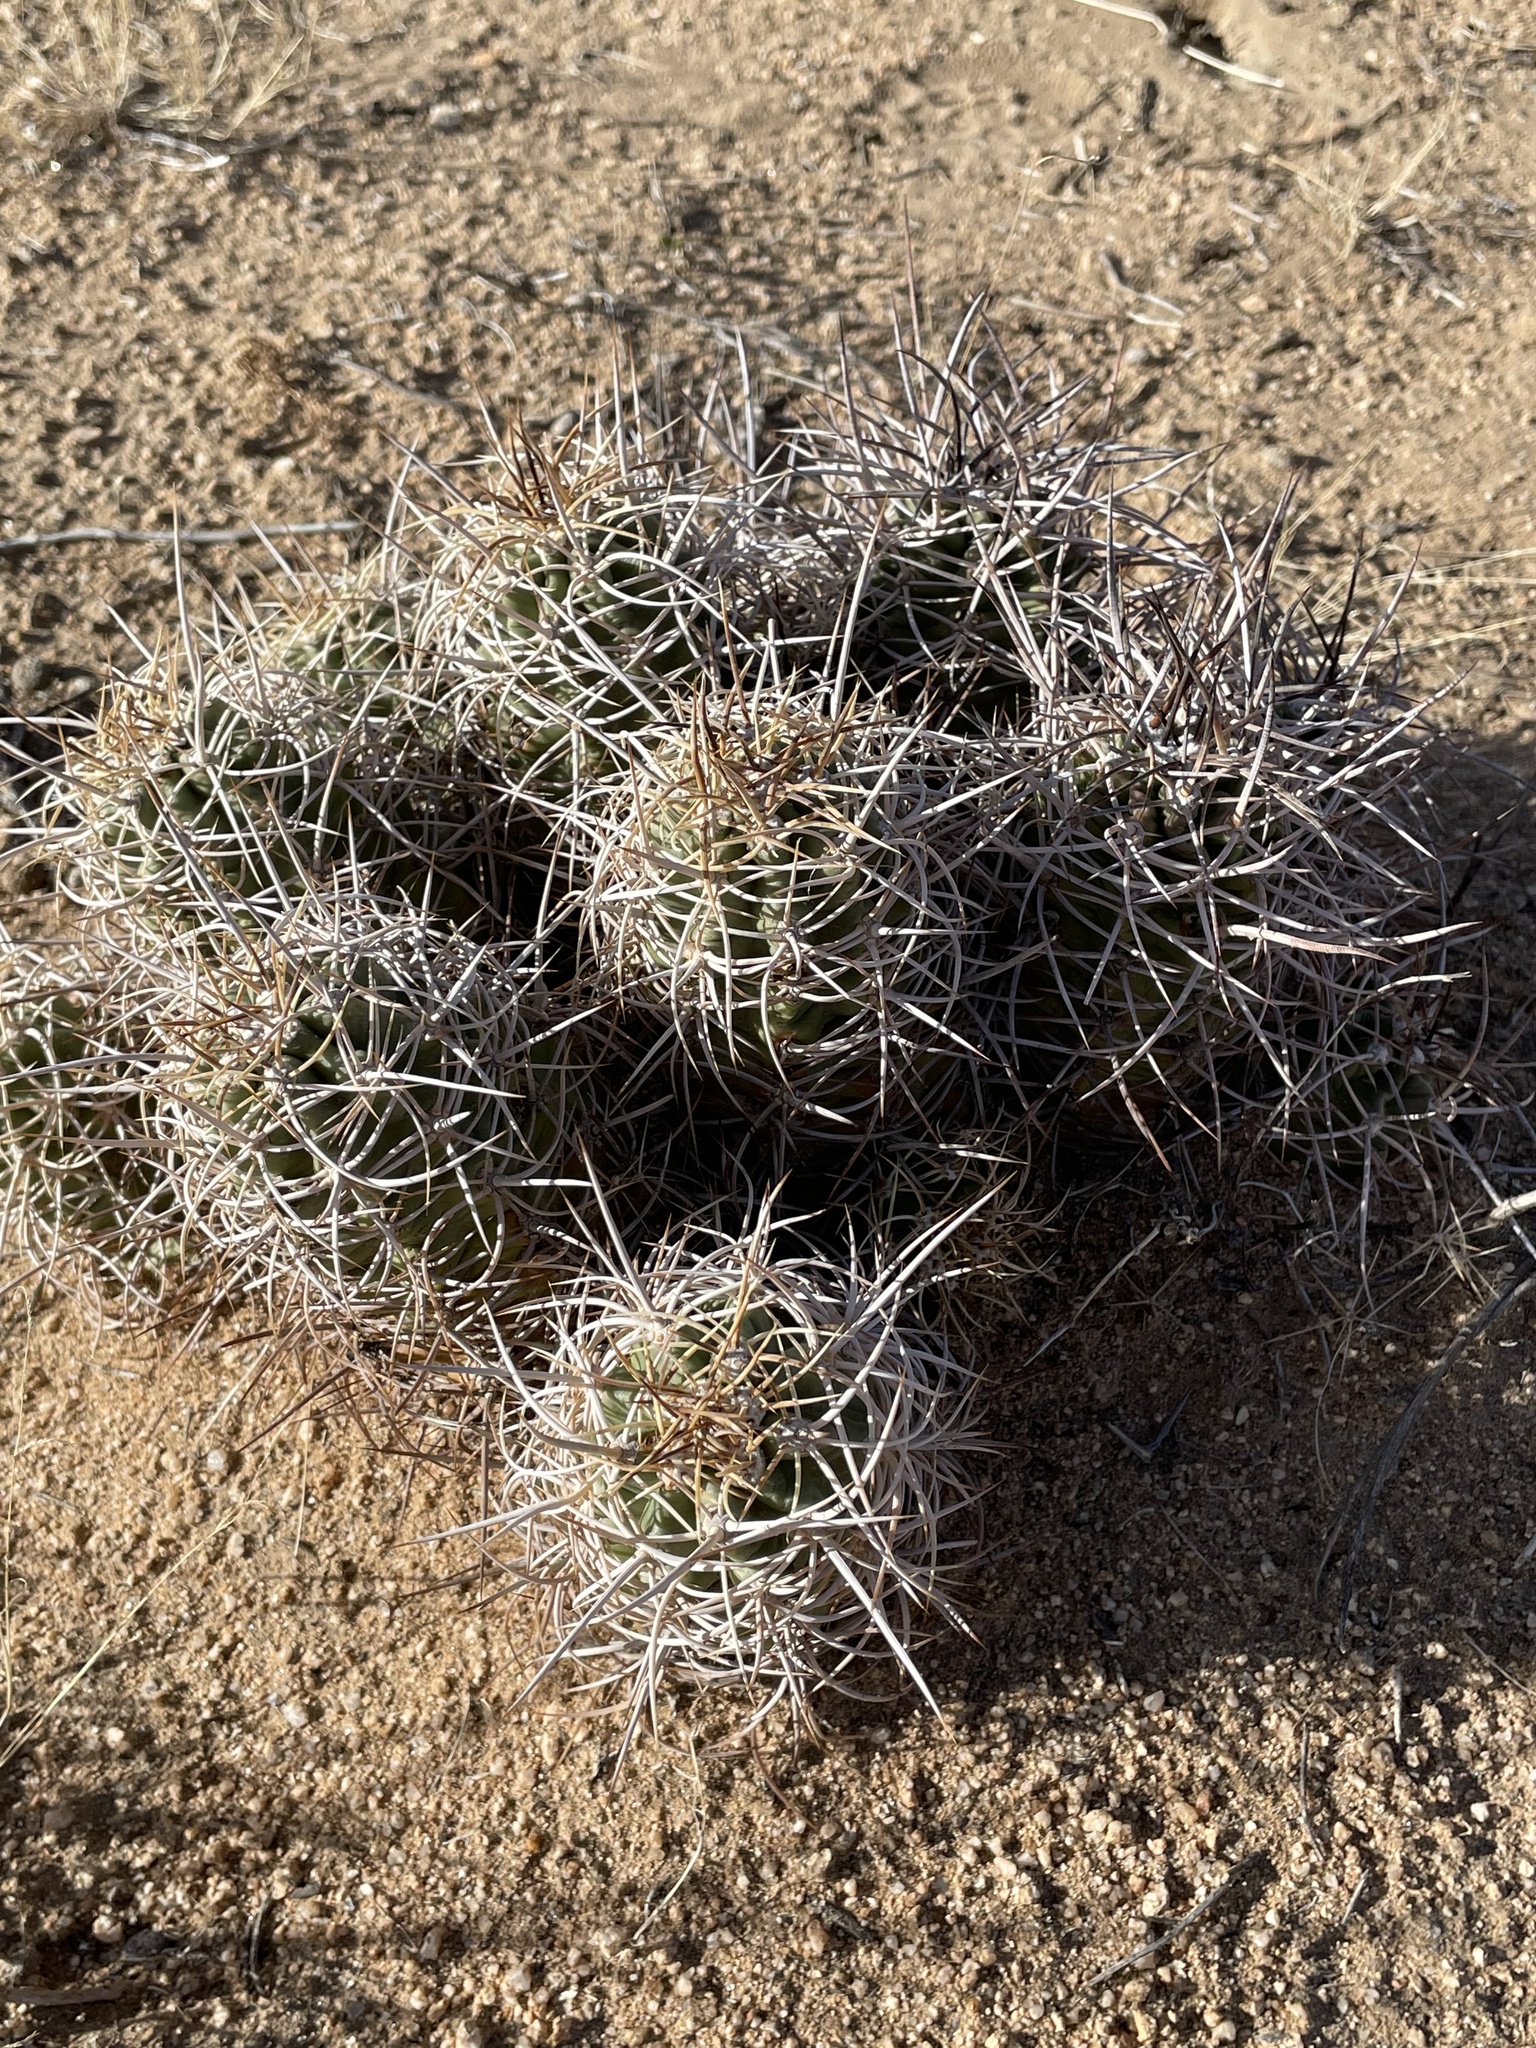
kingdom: Plantae
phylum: Tracheophyta
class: Magnoliopsida
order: Caryophyllales
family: Cactaceae
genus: Echinocereus
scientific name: Echinocereus triglochidiatus
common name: Claretcup hedgehog
